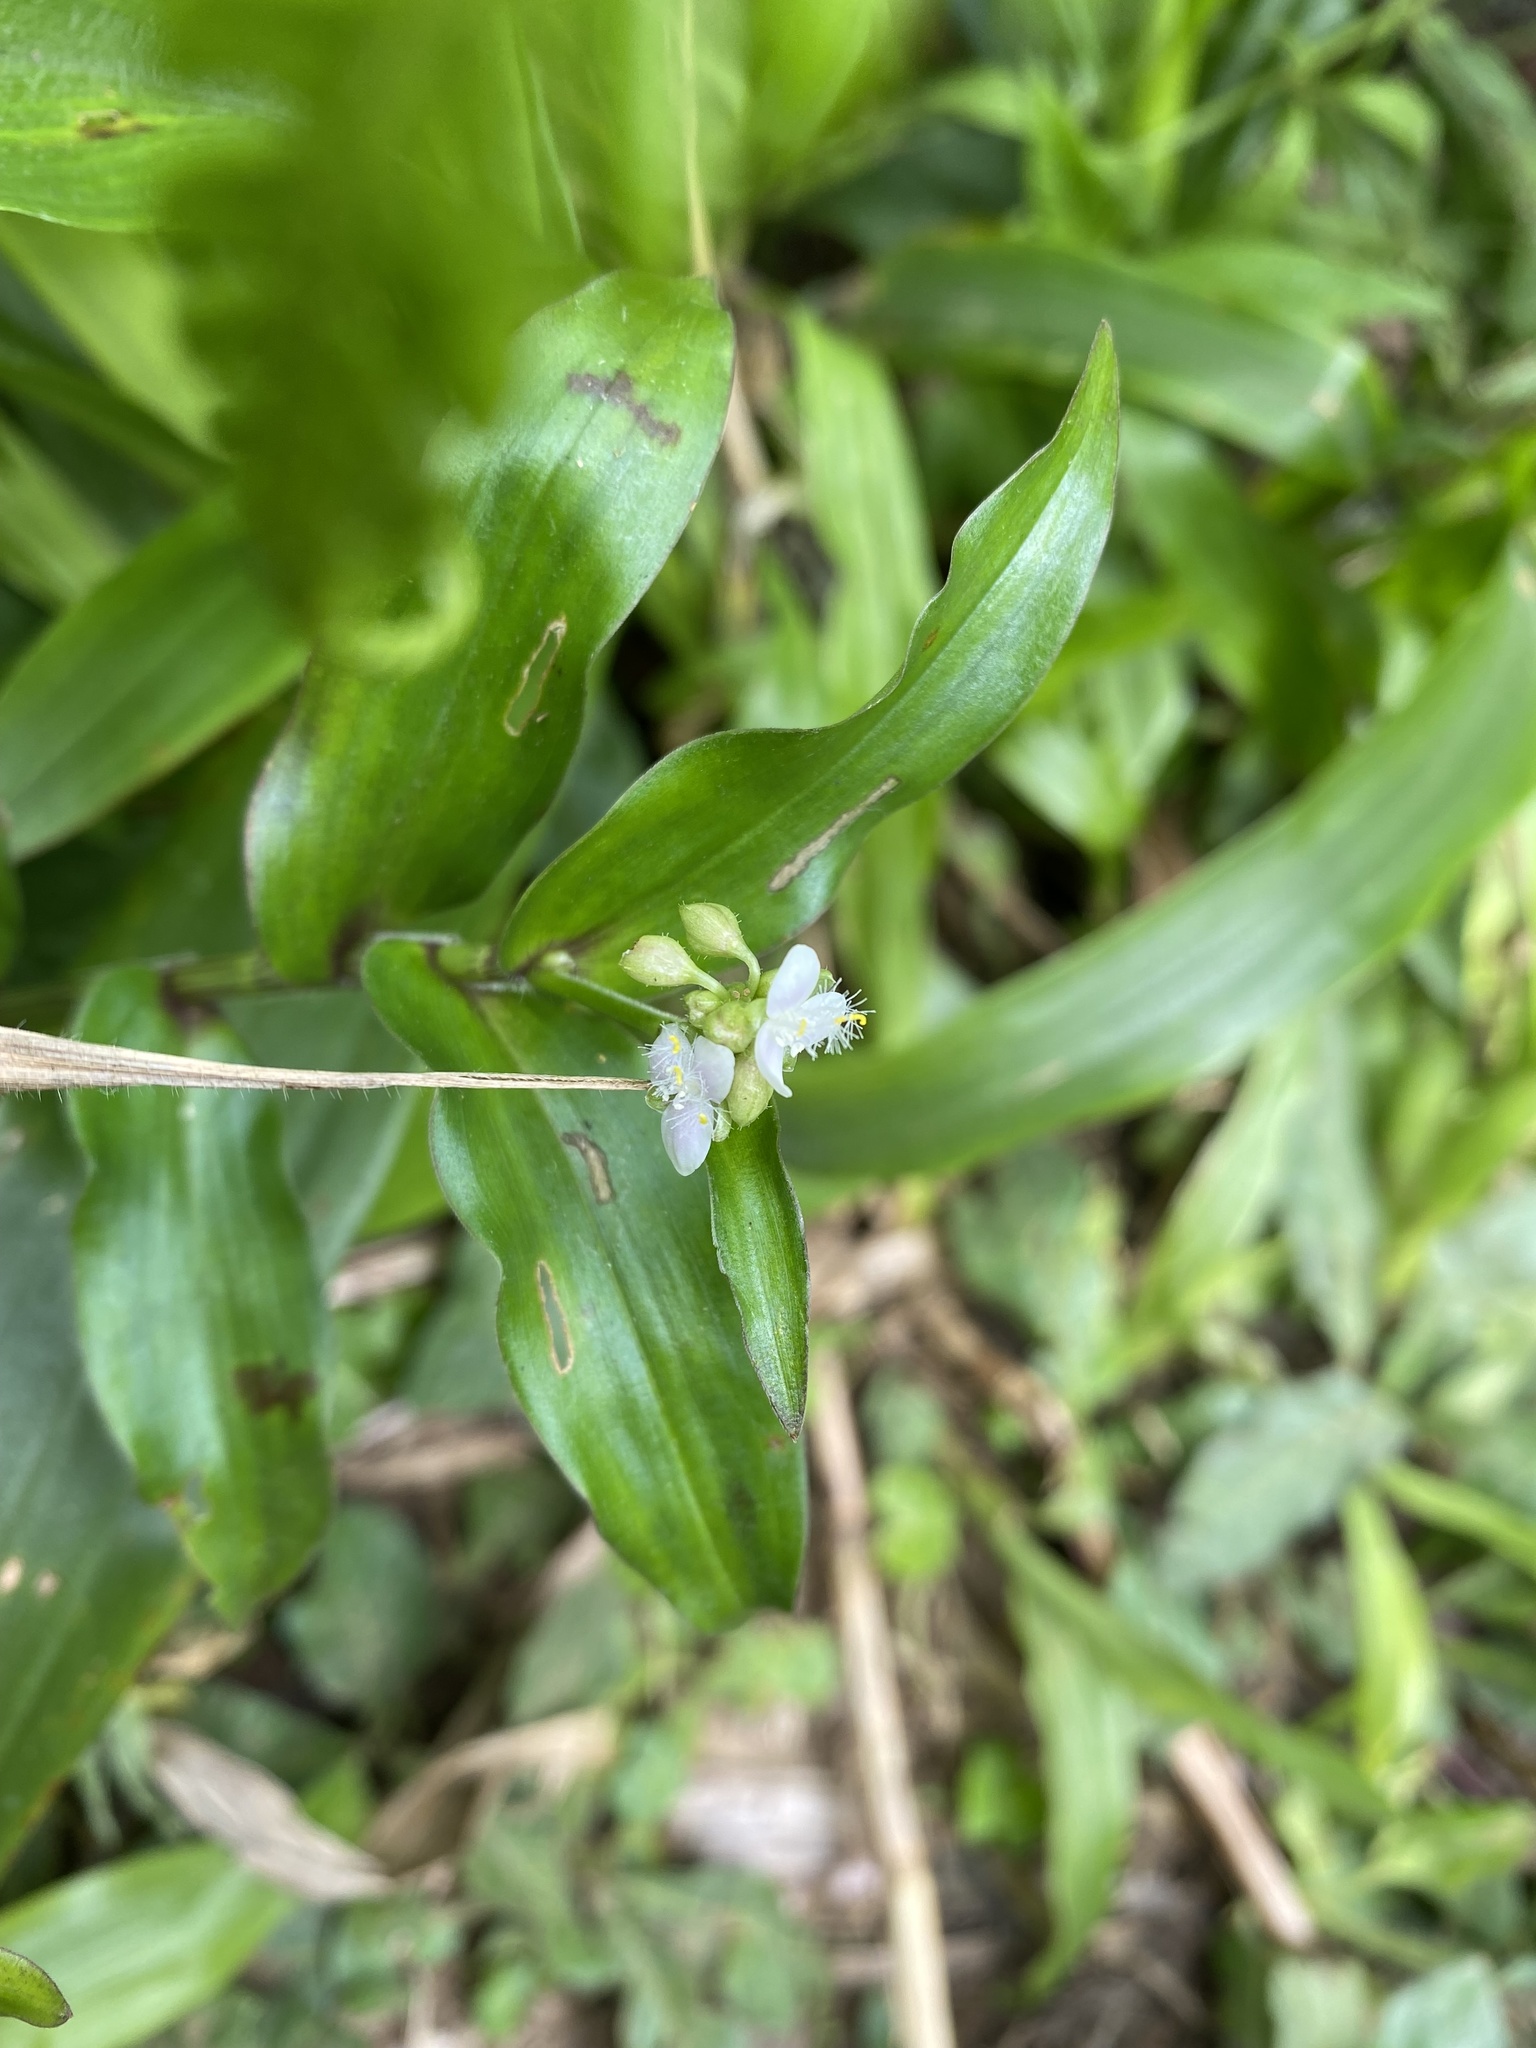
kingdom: Plantae
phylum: Tracheophyta
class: Liliopsida
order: Commelinales
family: Commelinaceae
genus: Callisia
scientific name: Callisia serrulata
